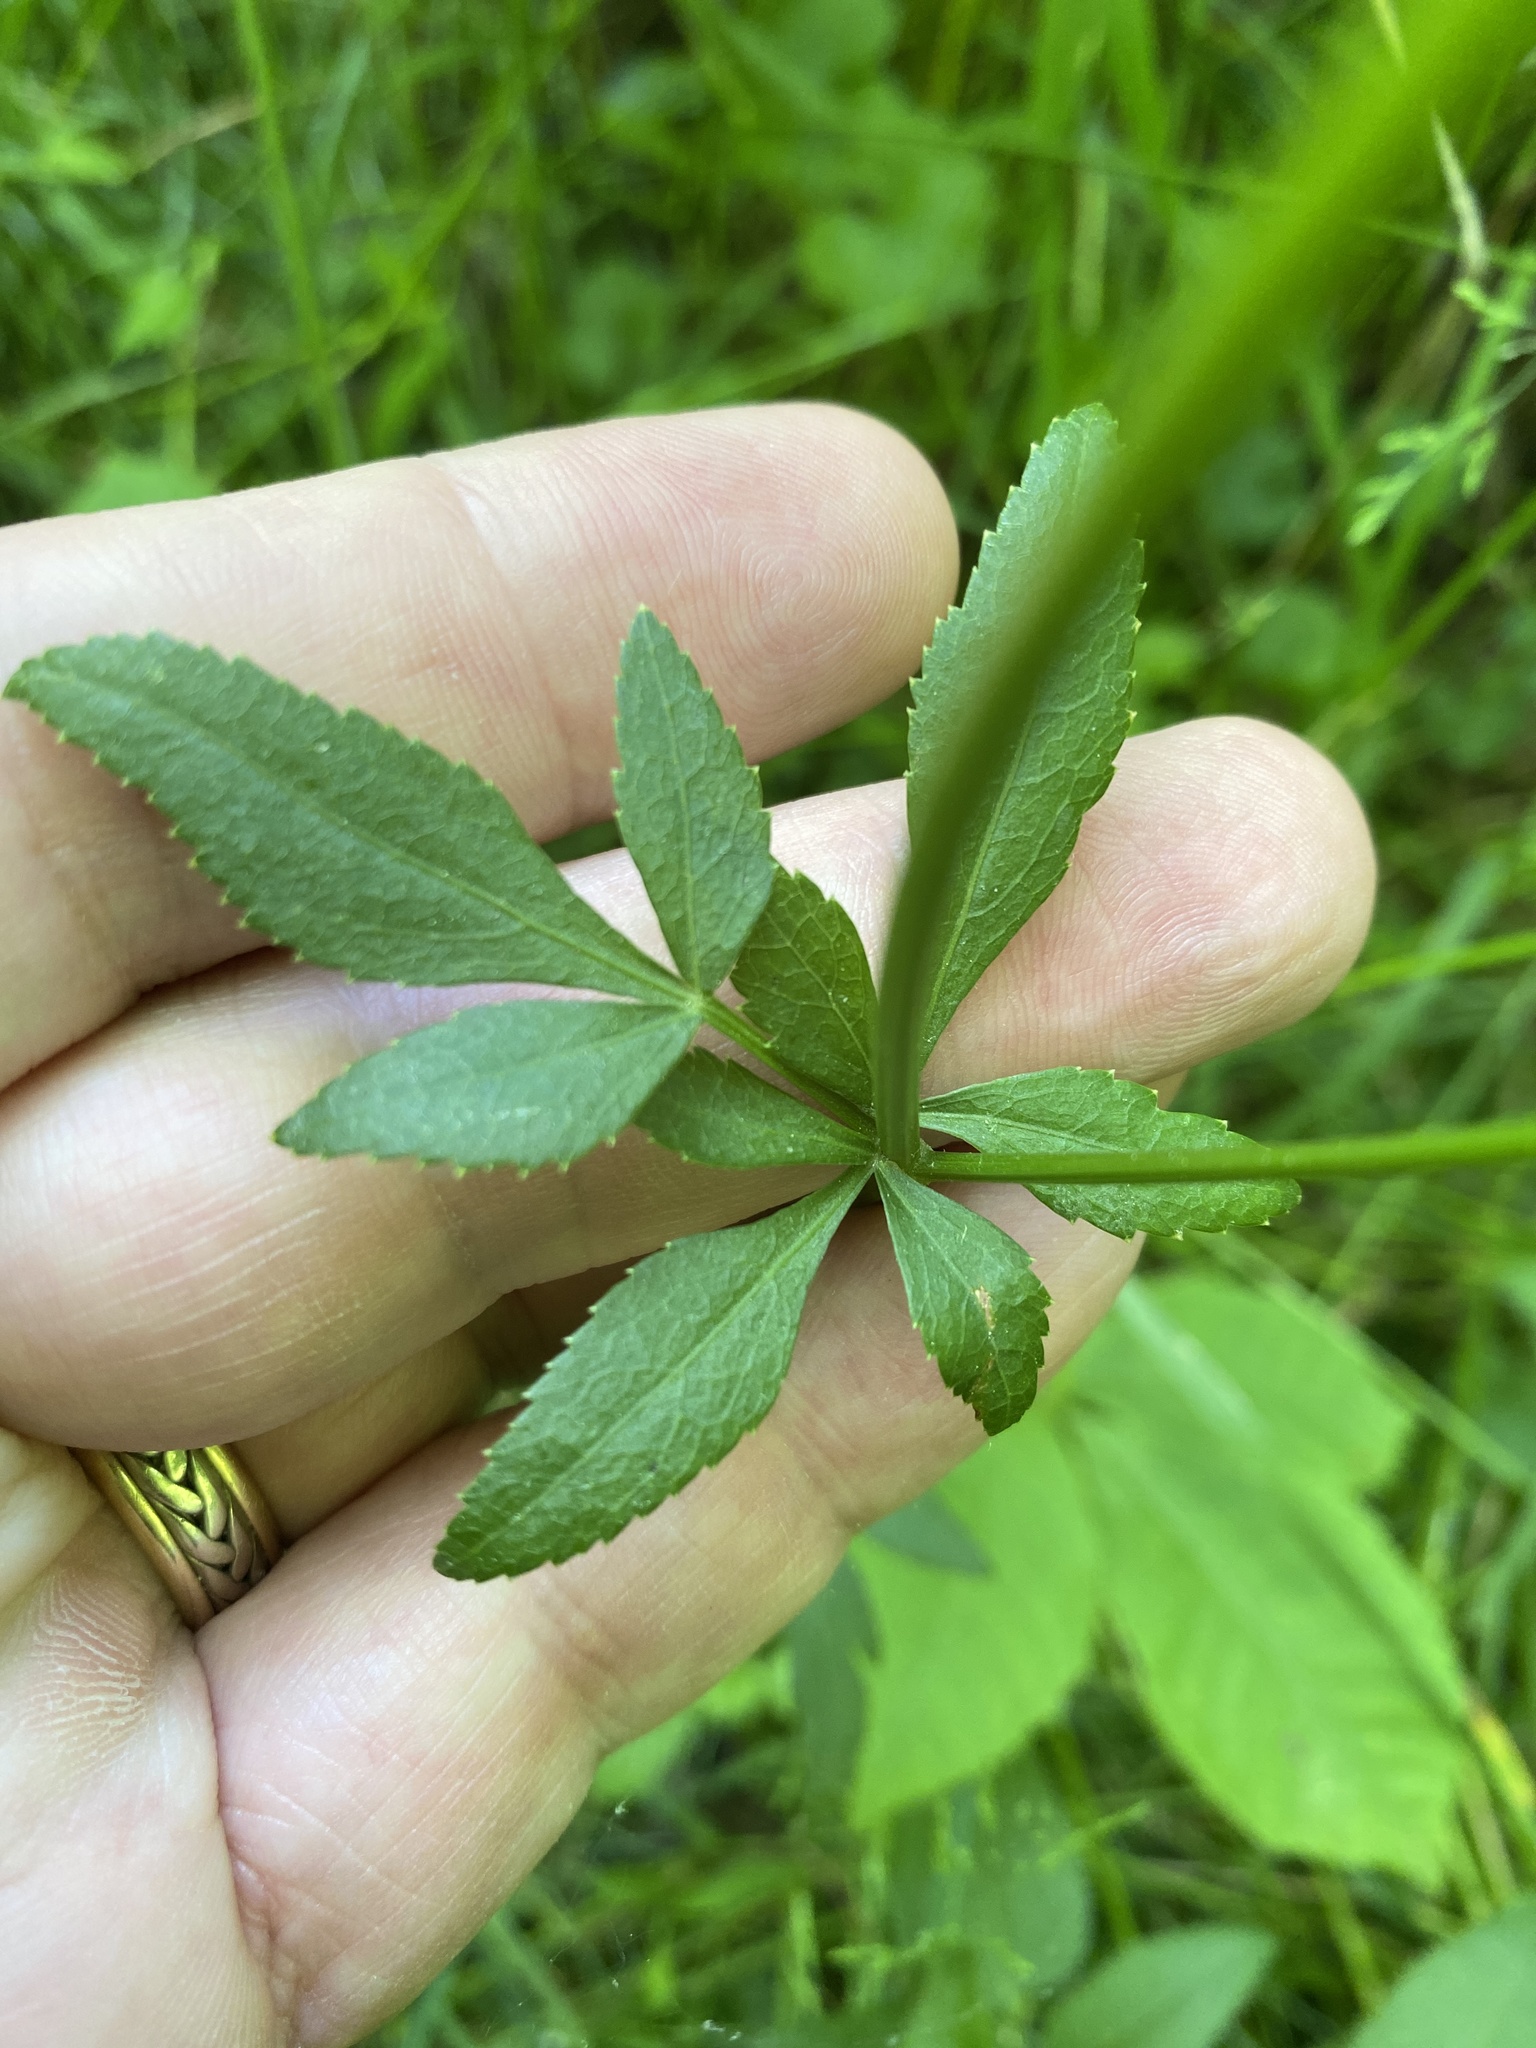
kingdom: Plantae
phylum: Tracheophyta
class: Magnoliopsida
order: Apiales
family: Apiaceae
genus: Zizia
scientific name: Zizia aurea
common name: Golden alexanders
